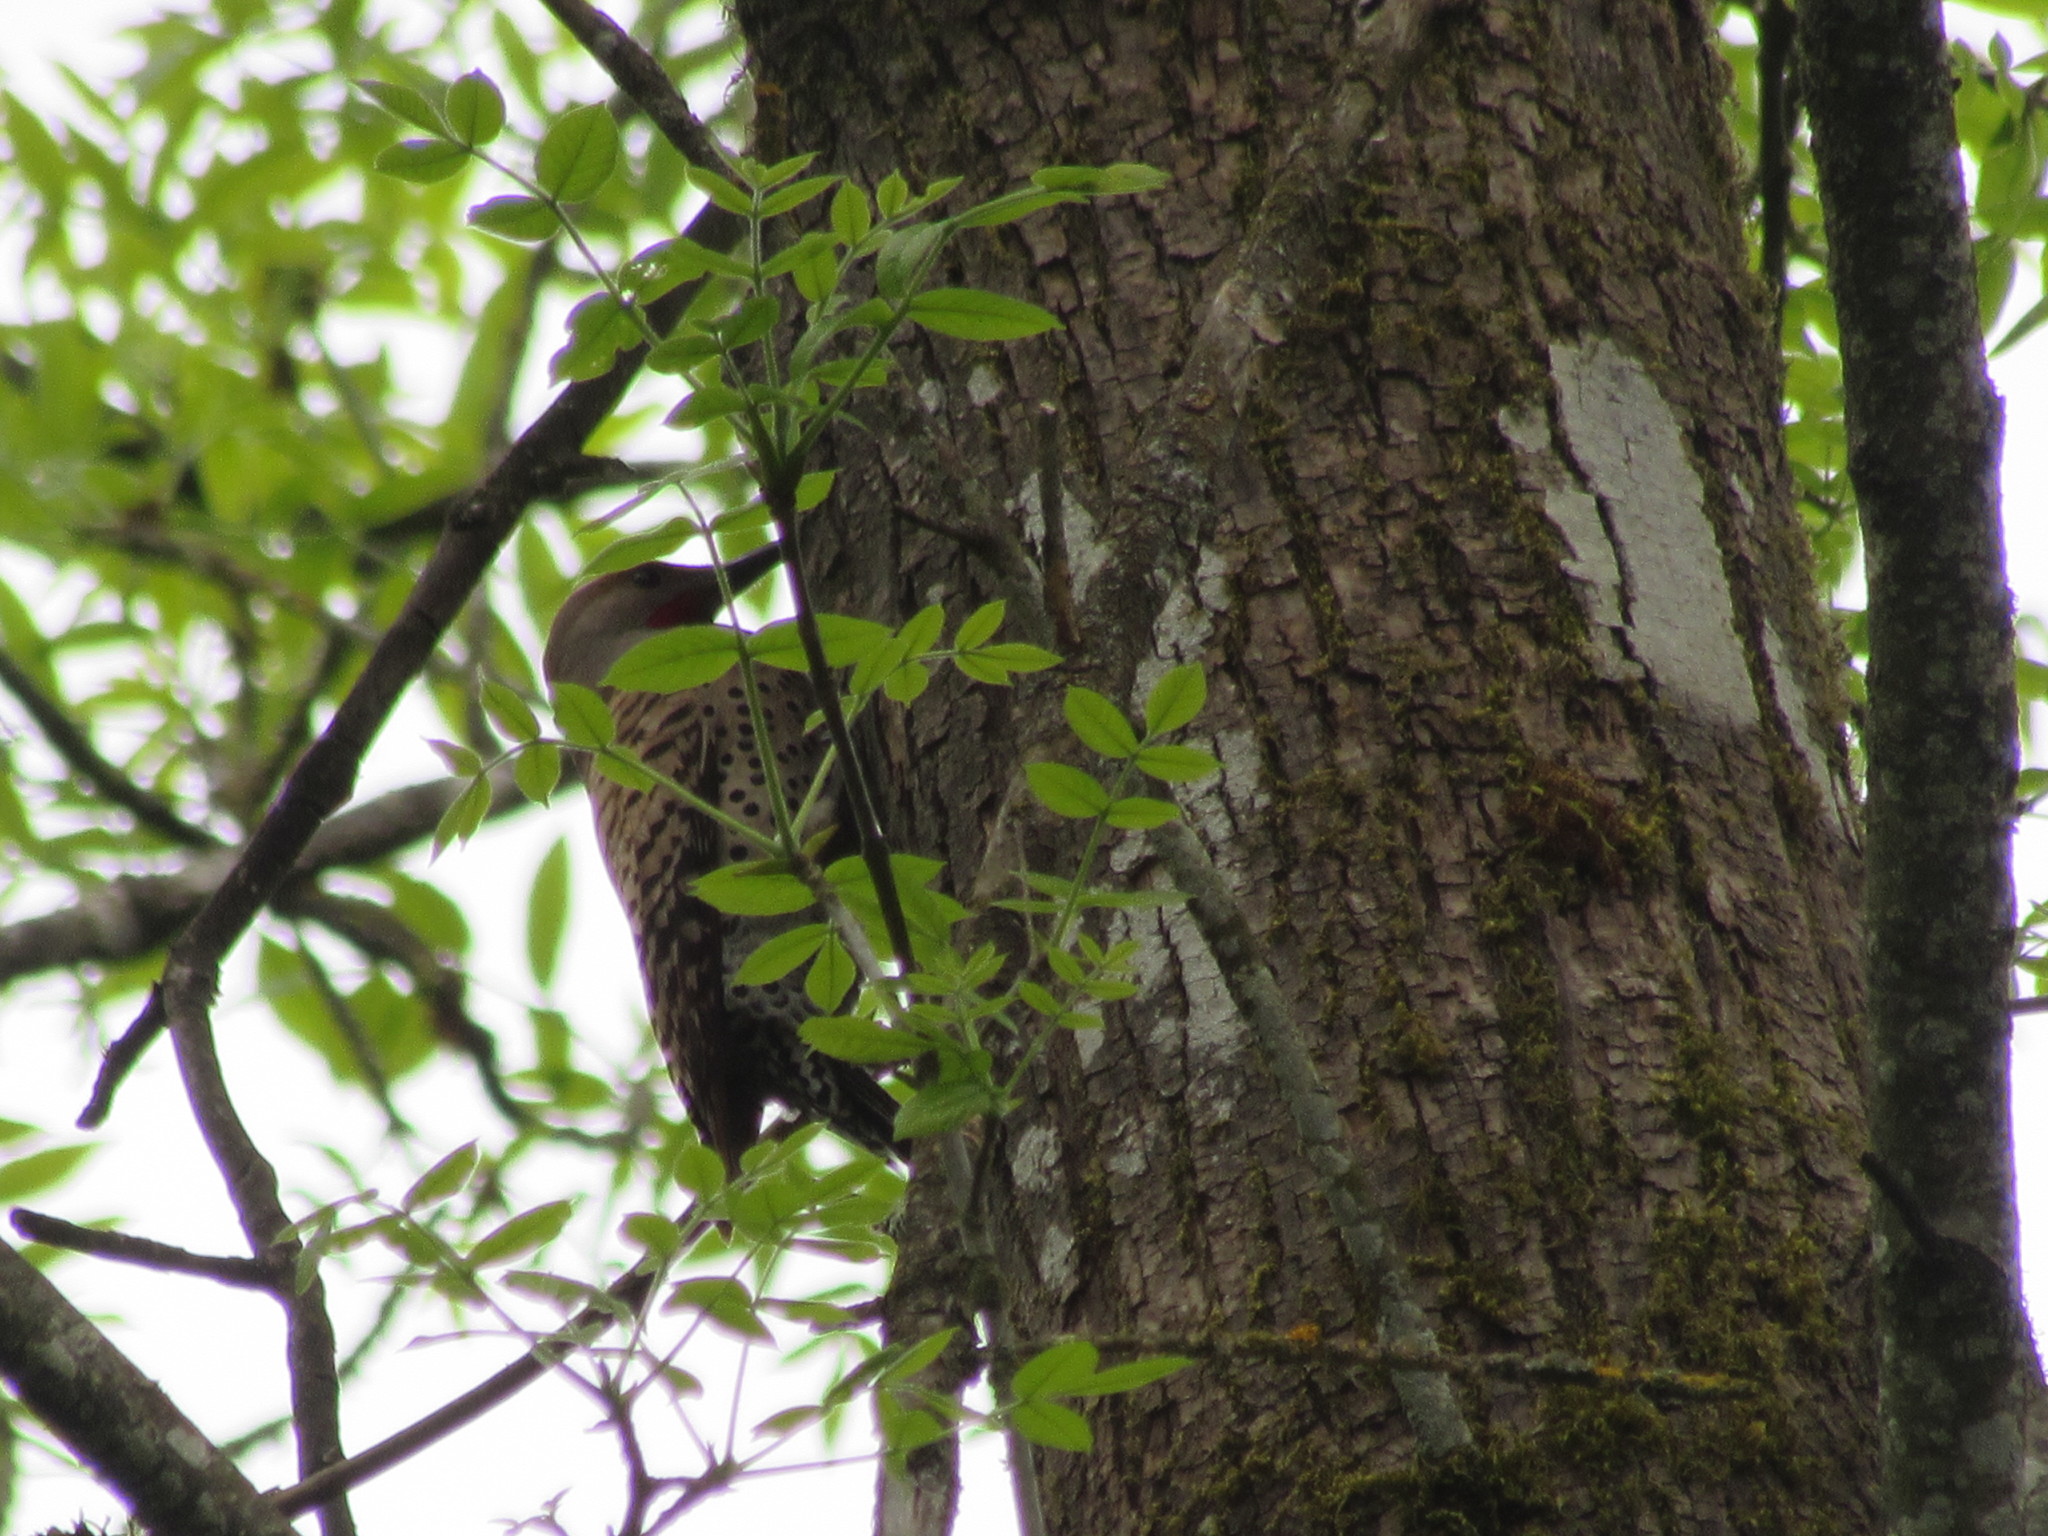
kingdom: Animalia
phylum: Chordata
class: Aves
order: Piciformes
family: Picidae
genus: Colaptes
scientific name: Colaptes auratus
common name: Northern flicker
